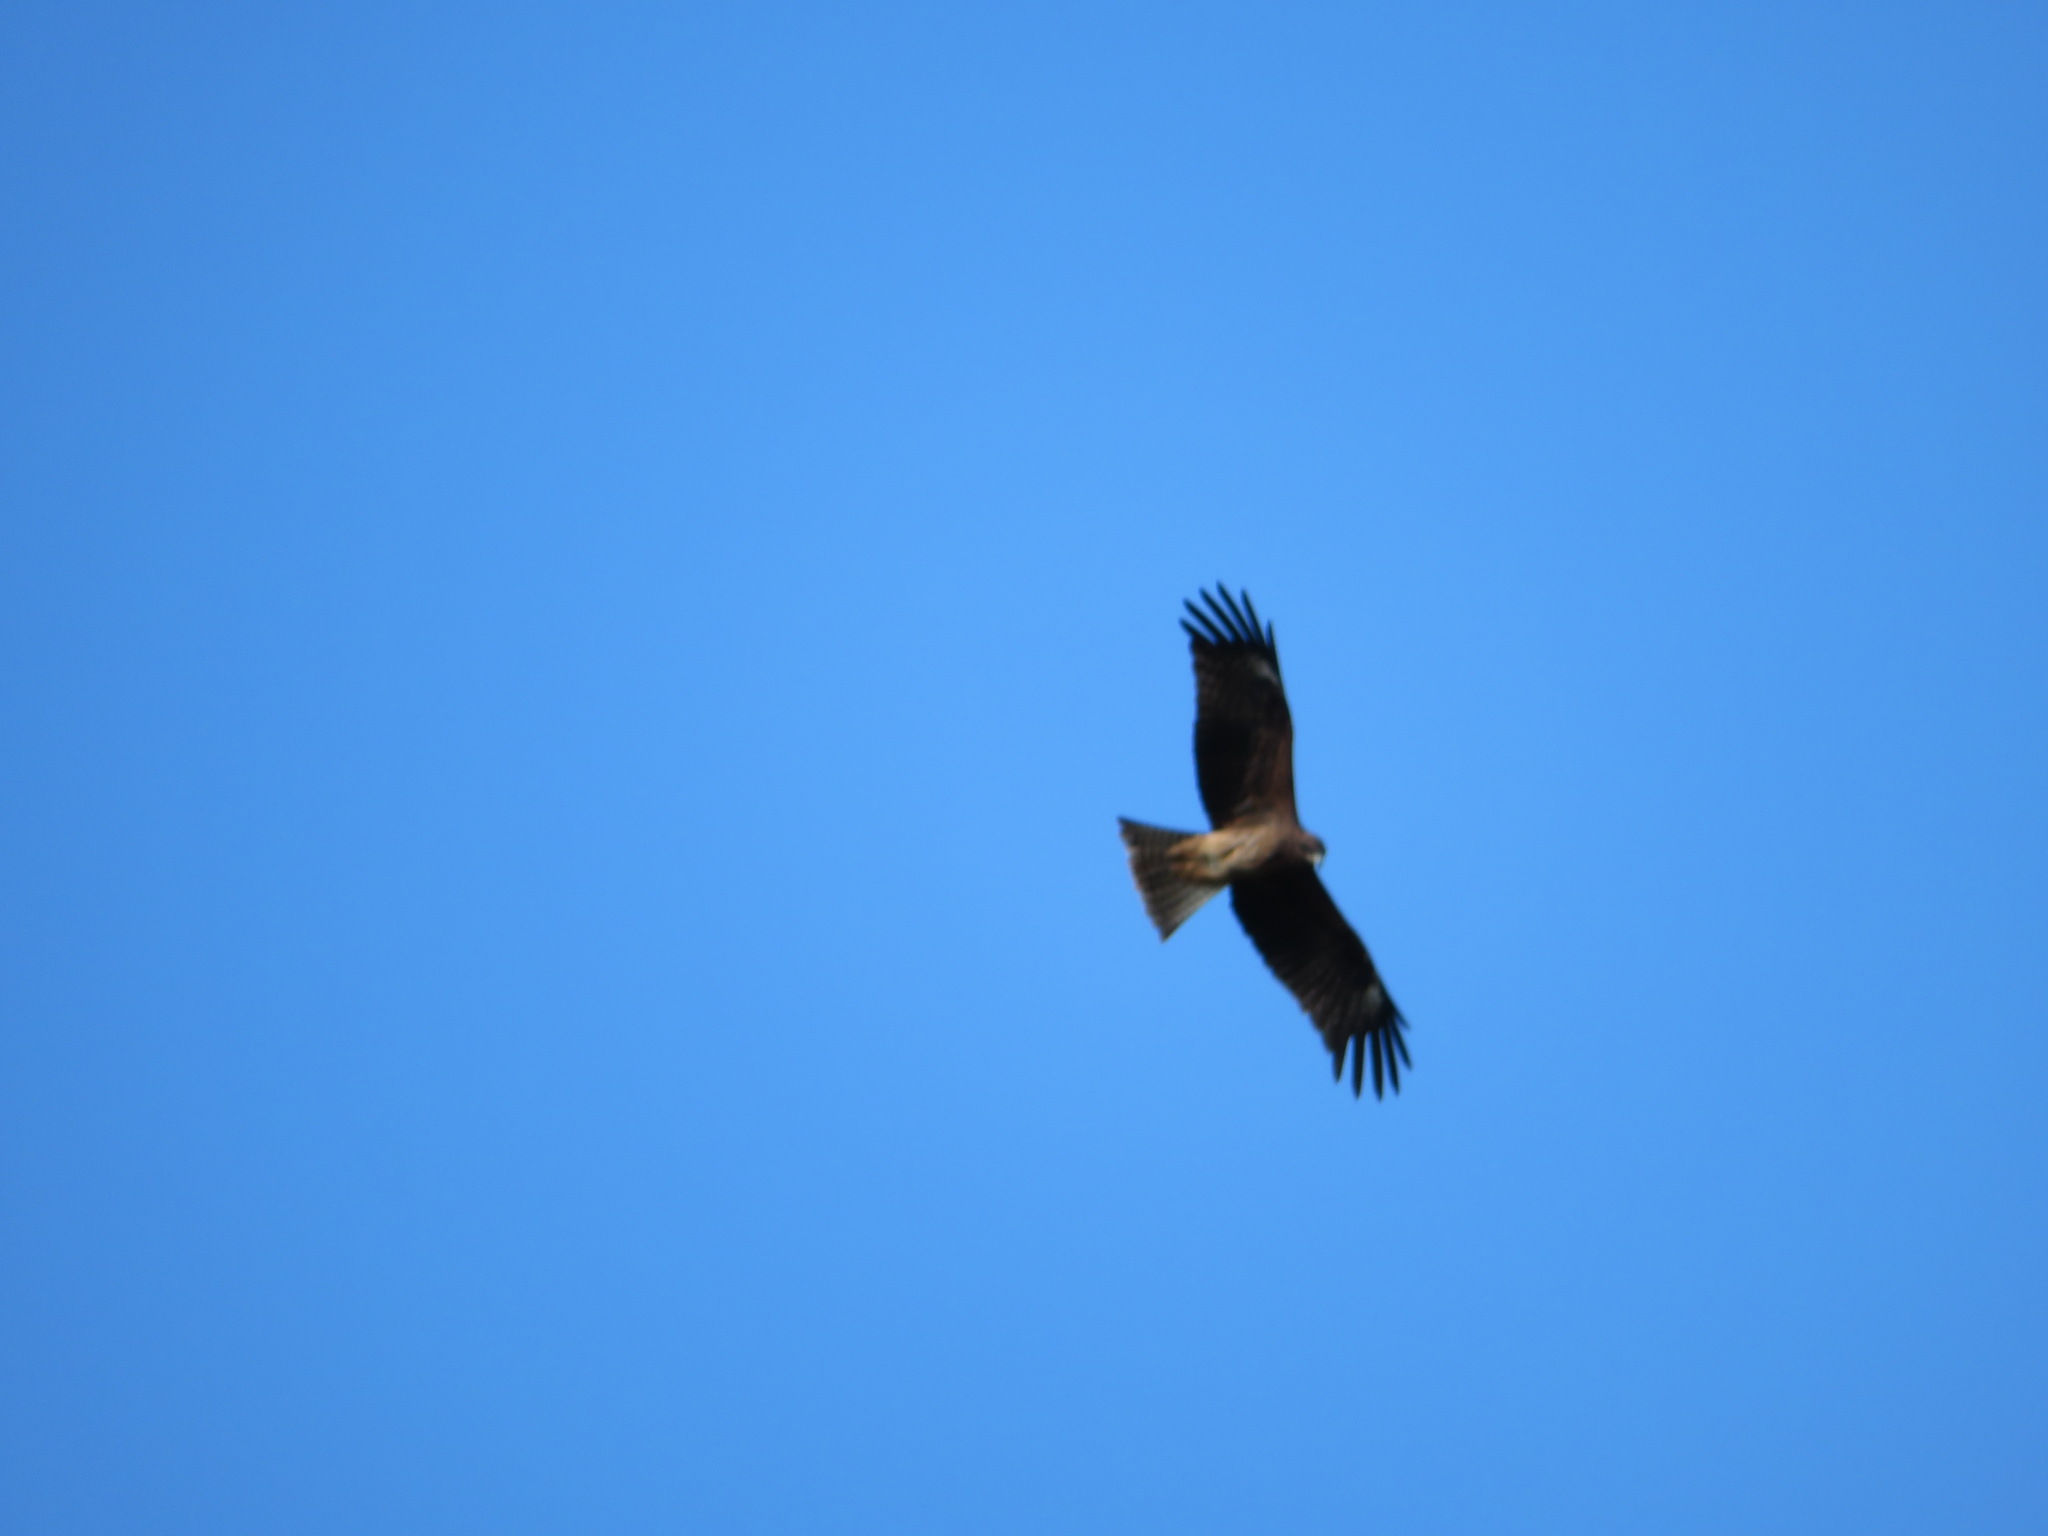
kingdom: Animalia
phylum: Chordata
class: Aves
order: Accipitriformes
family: Accipitridae
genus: Milvus
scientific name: Milvus migrans
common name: Black kite
